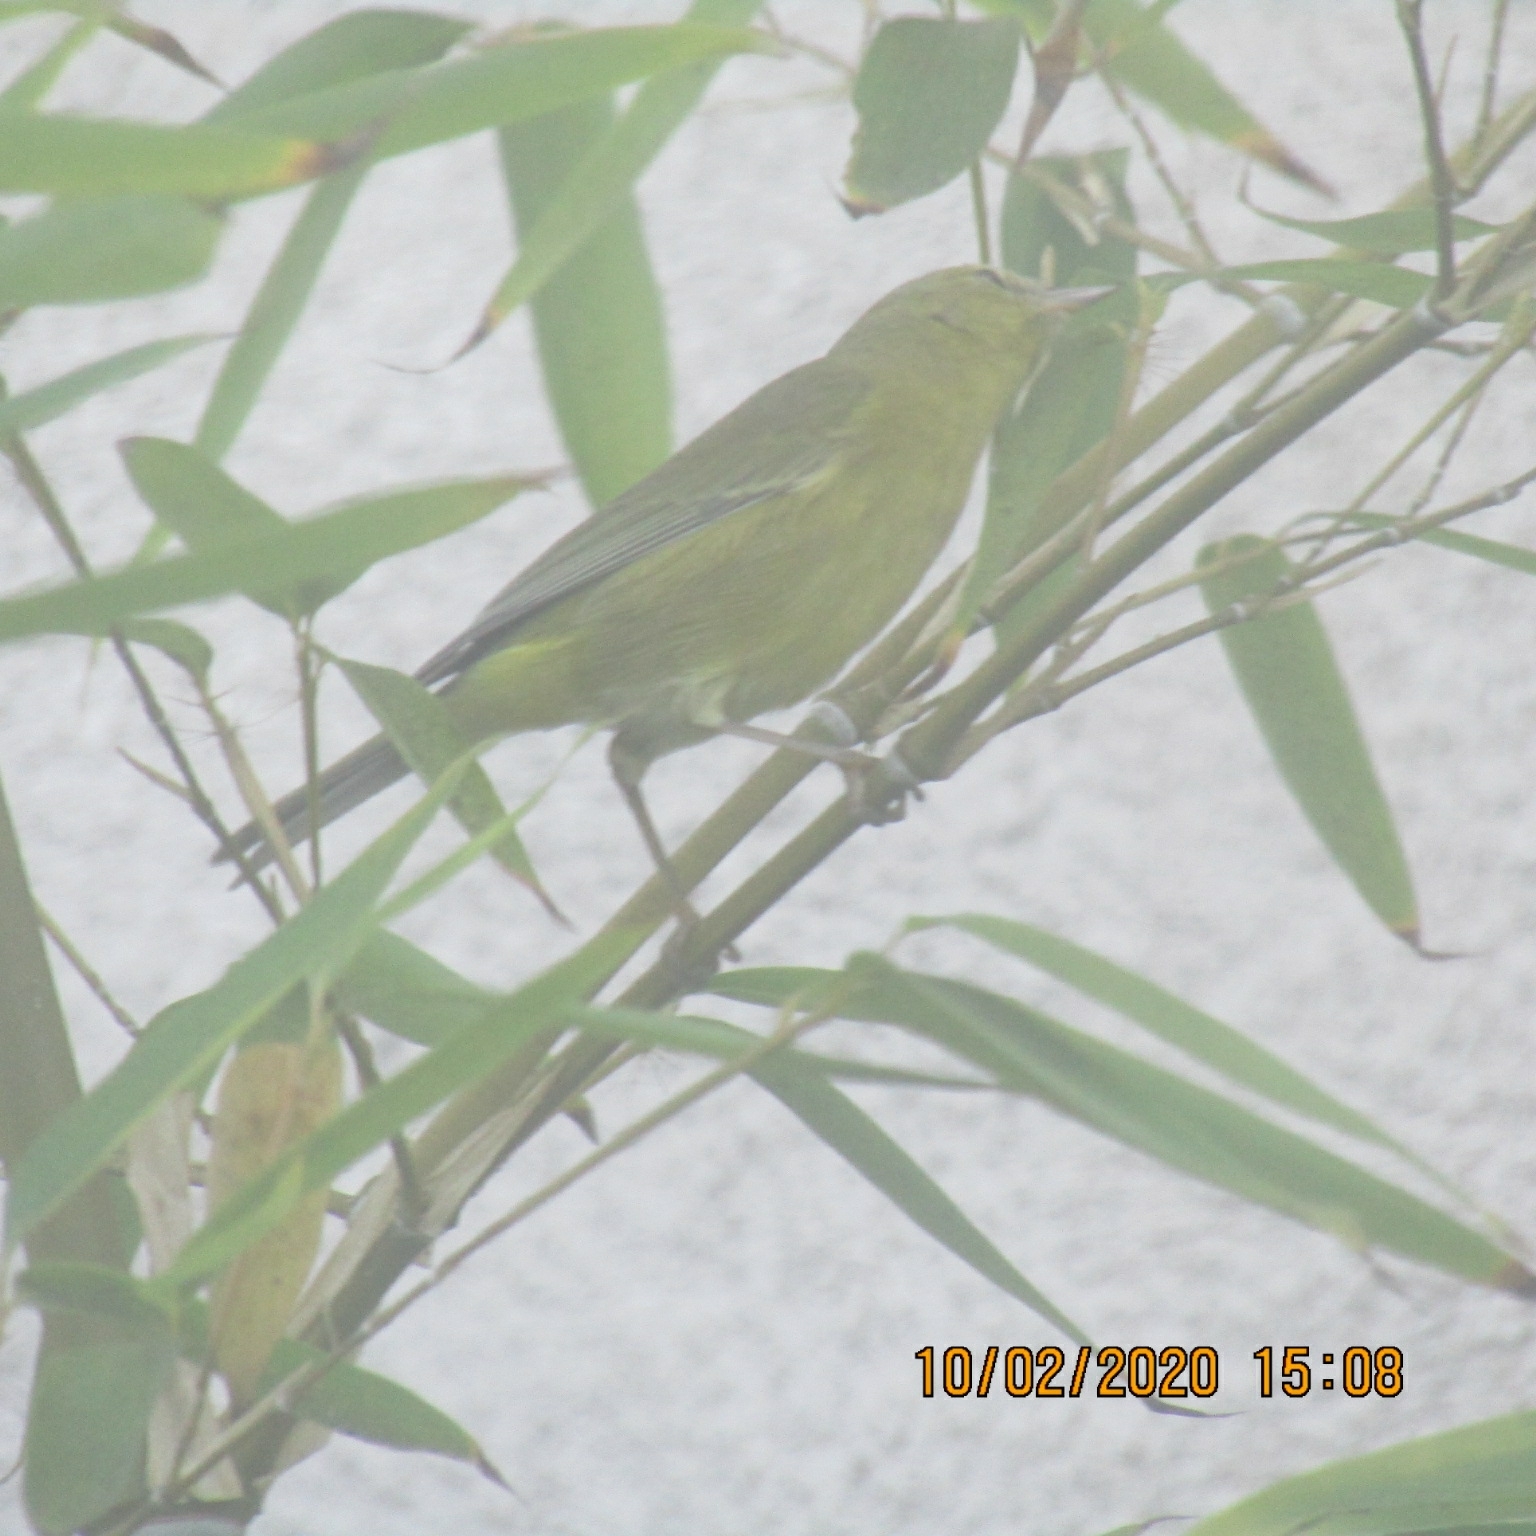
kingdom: Animalia
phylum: Chordata
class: Aves
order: Passeriformes
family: Parulidae
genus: Leiothlypis
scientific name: Leiothlypis celata
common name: Orange-crowned warbler
